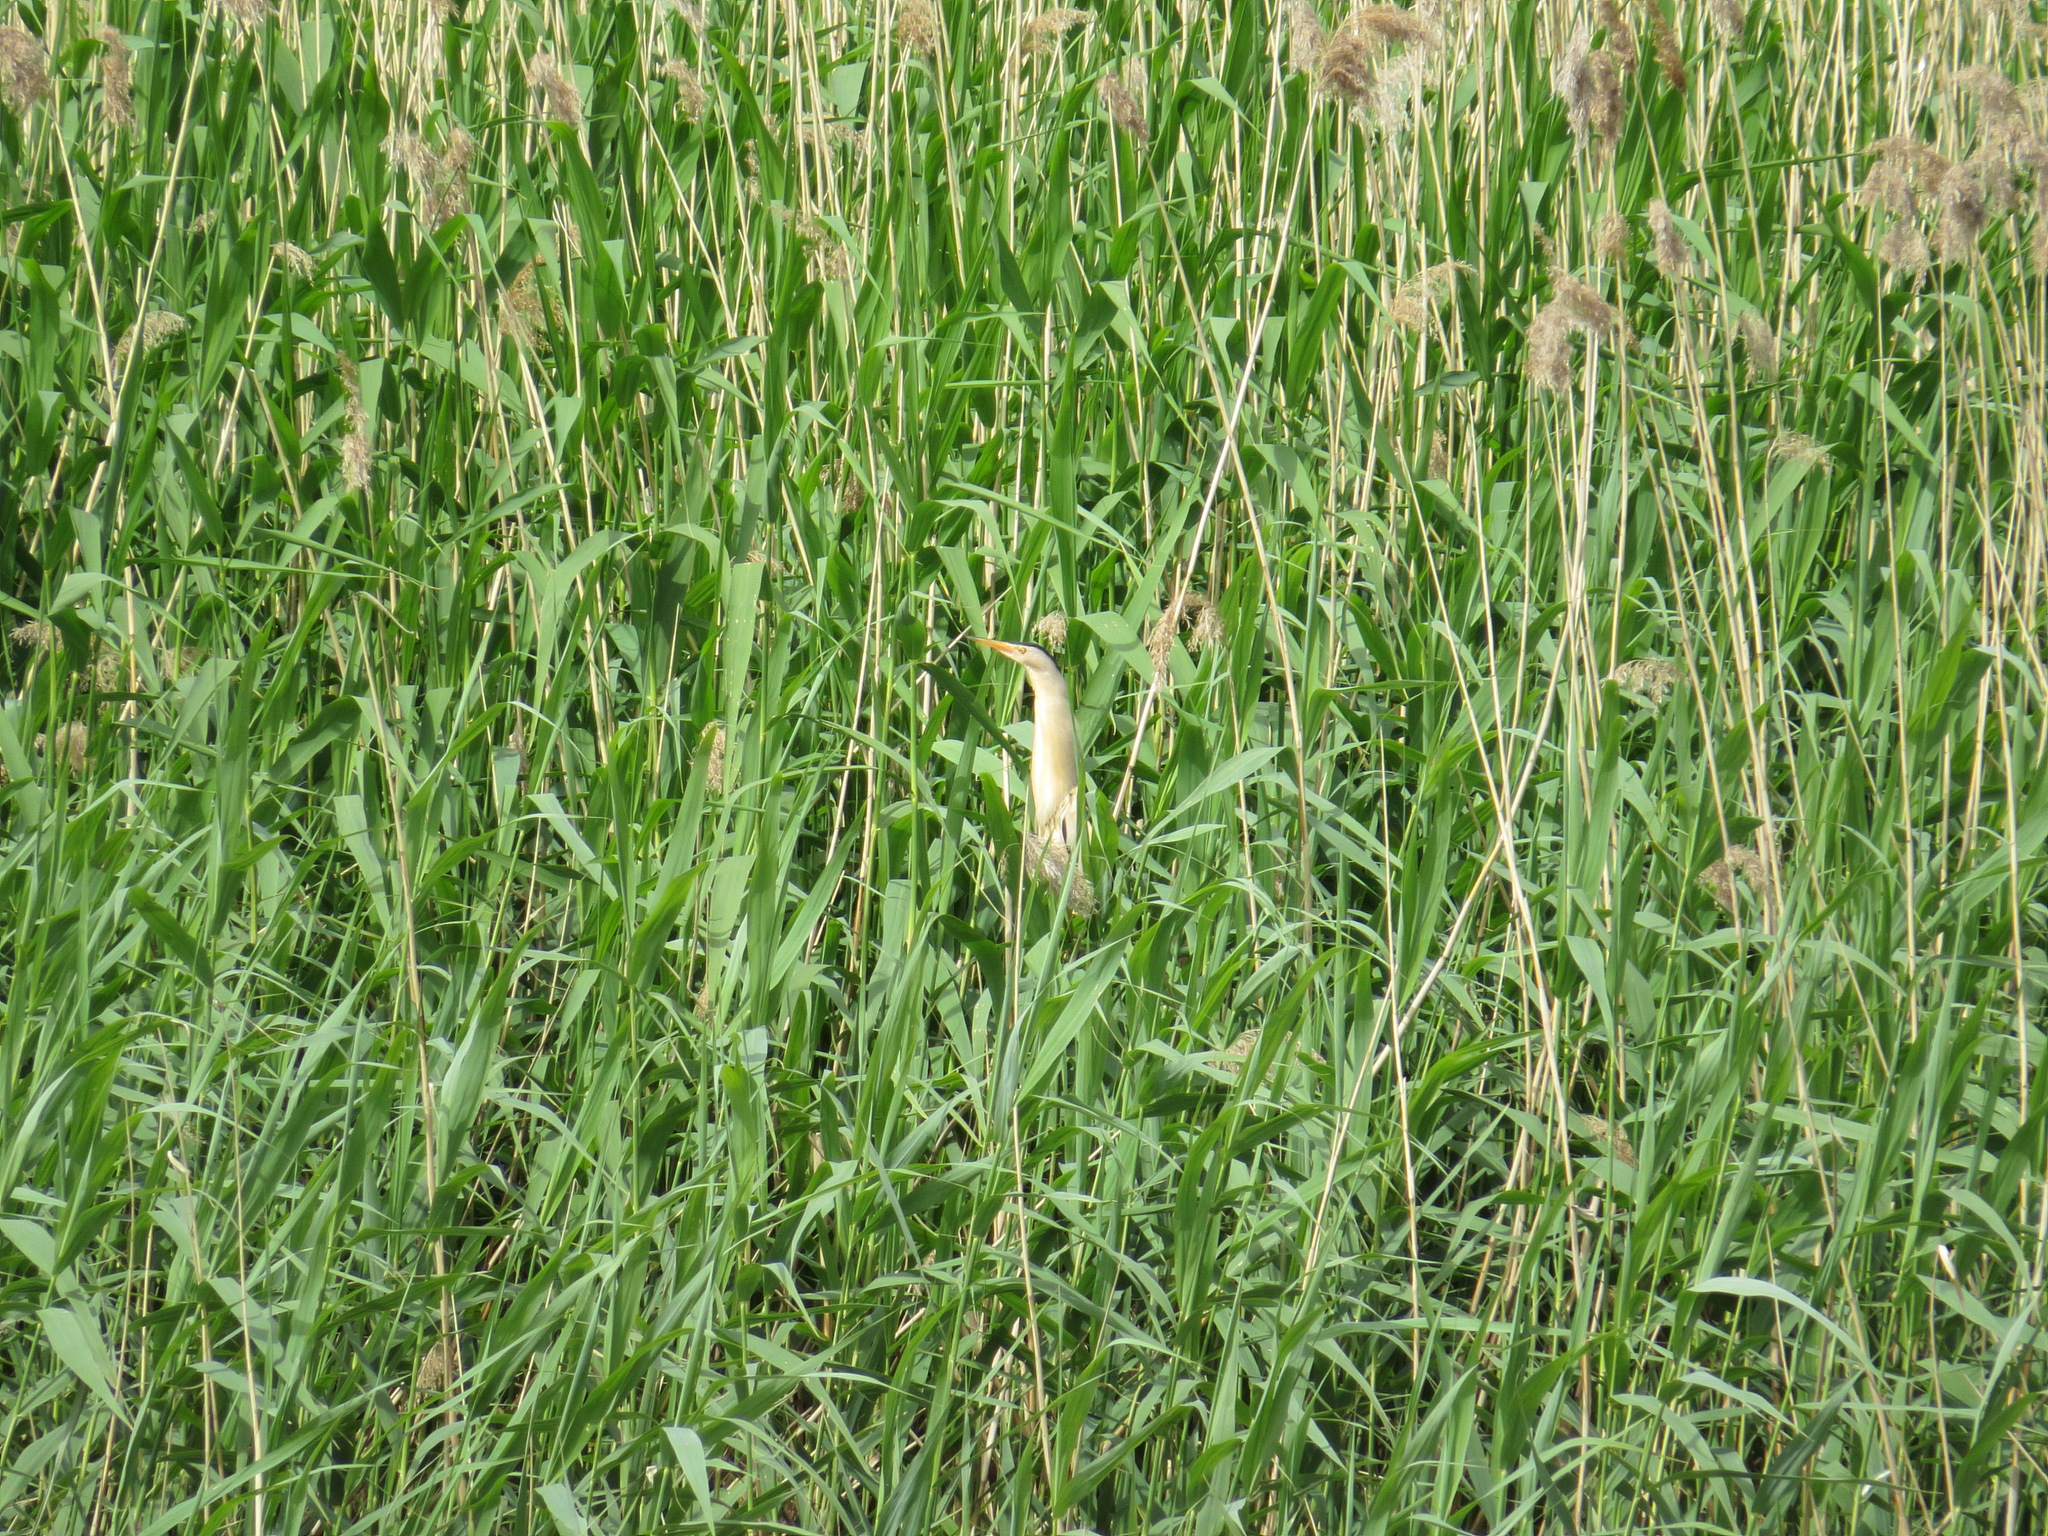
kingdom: Animalia
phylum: Chordata
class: Aves
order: Pelecaniformes
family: Ardeidae
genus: Ixobrychus
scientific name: Ixobrychus minutus
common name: Little bittern
